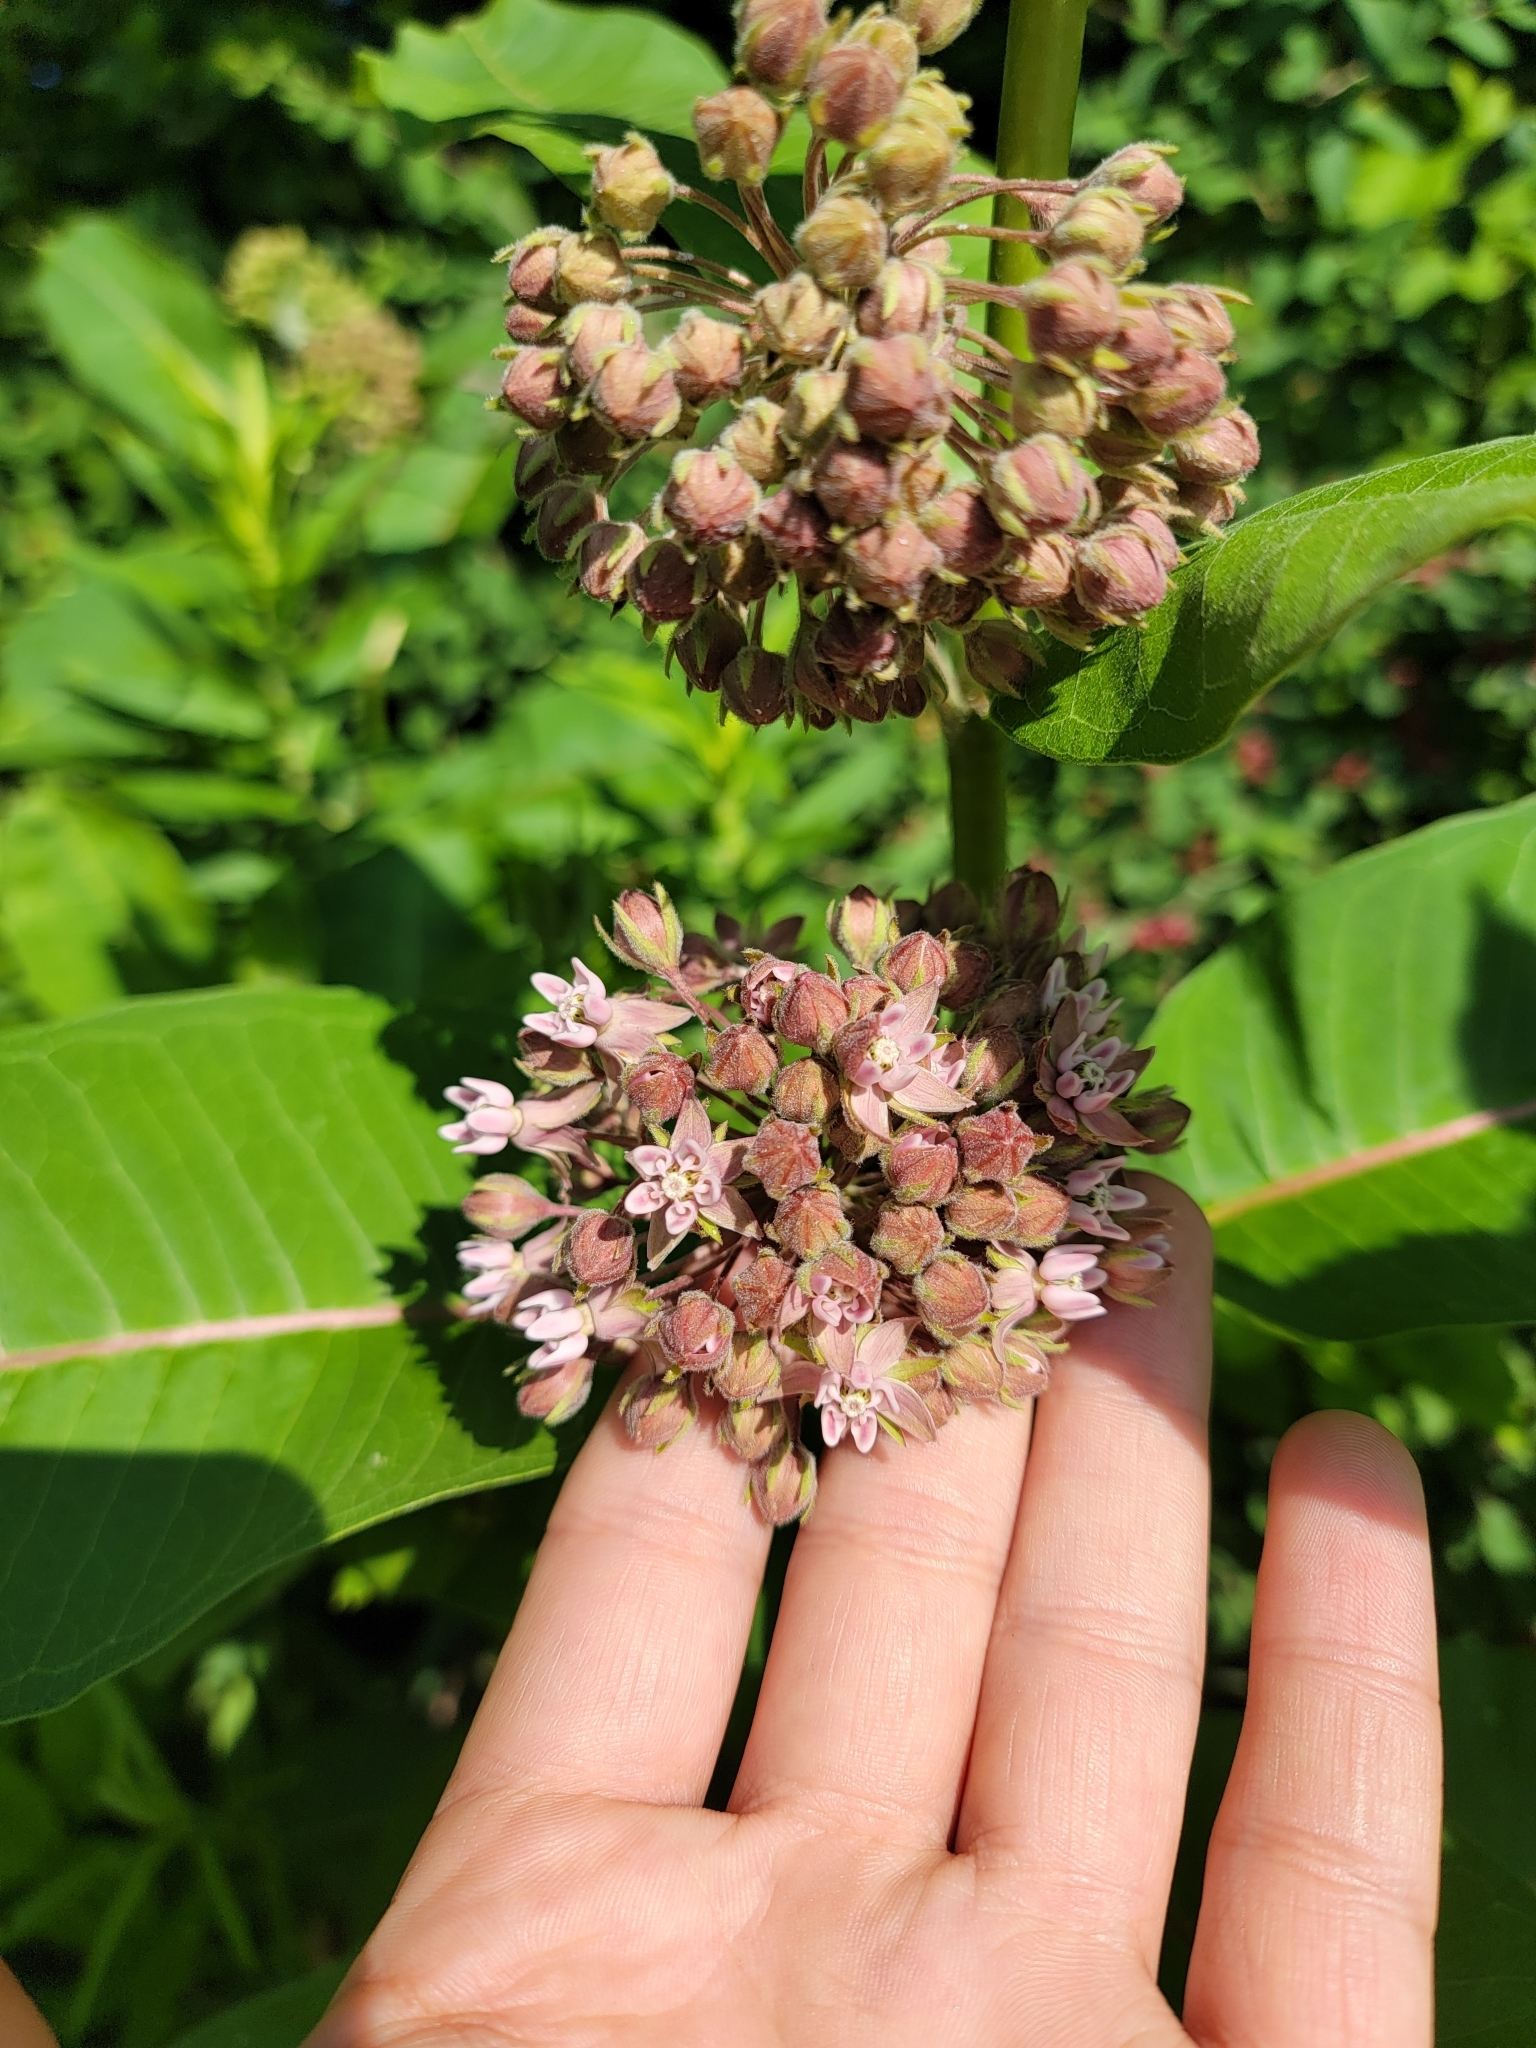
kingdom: Plantae
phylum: Tracheophyta
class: Magnoliopsida
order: Gentianales
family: Apocynaceae
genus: Asclepias
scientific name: Asclepias syriaca
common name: Common milkweed
